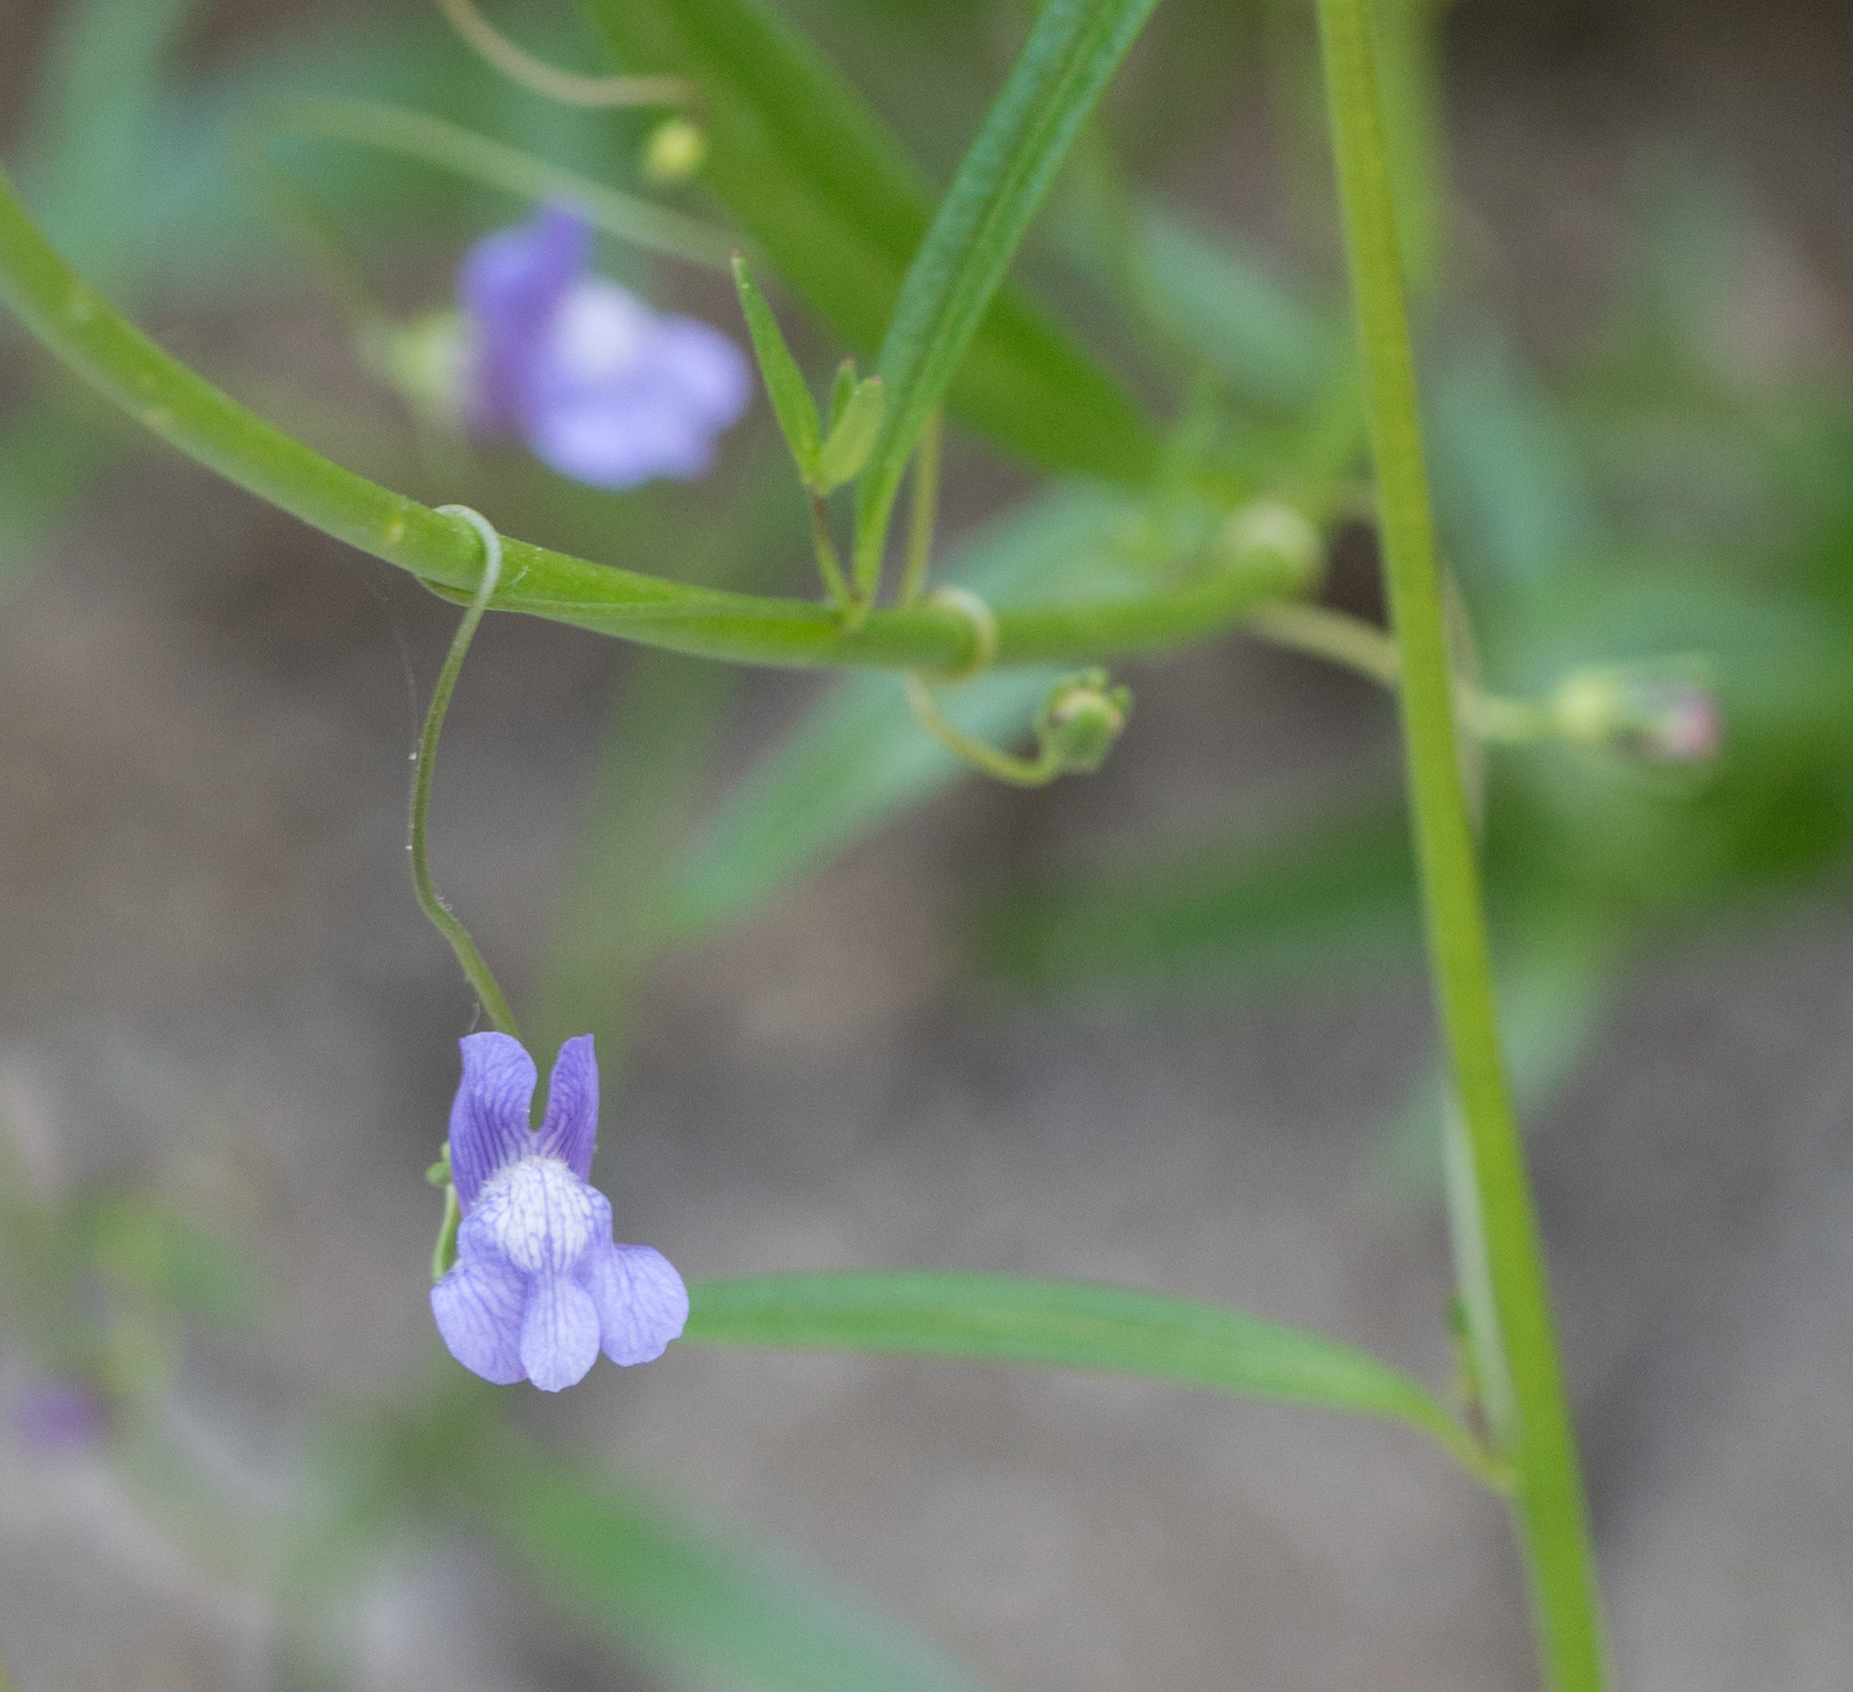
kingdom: Plantae
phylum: Tracheophyta
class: Magnoliopsida
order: Lamiales
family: Plantaginaceae
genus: Neogaerrhinum
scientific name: Neogaerrhinum strictum
